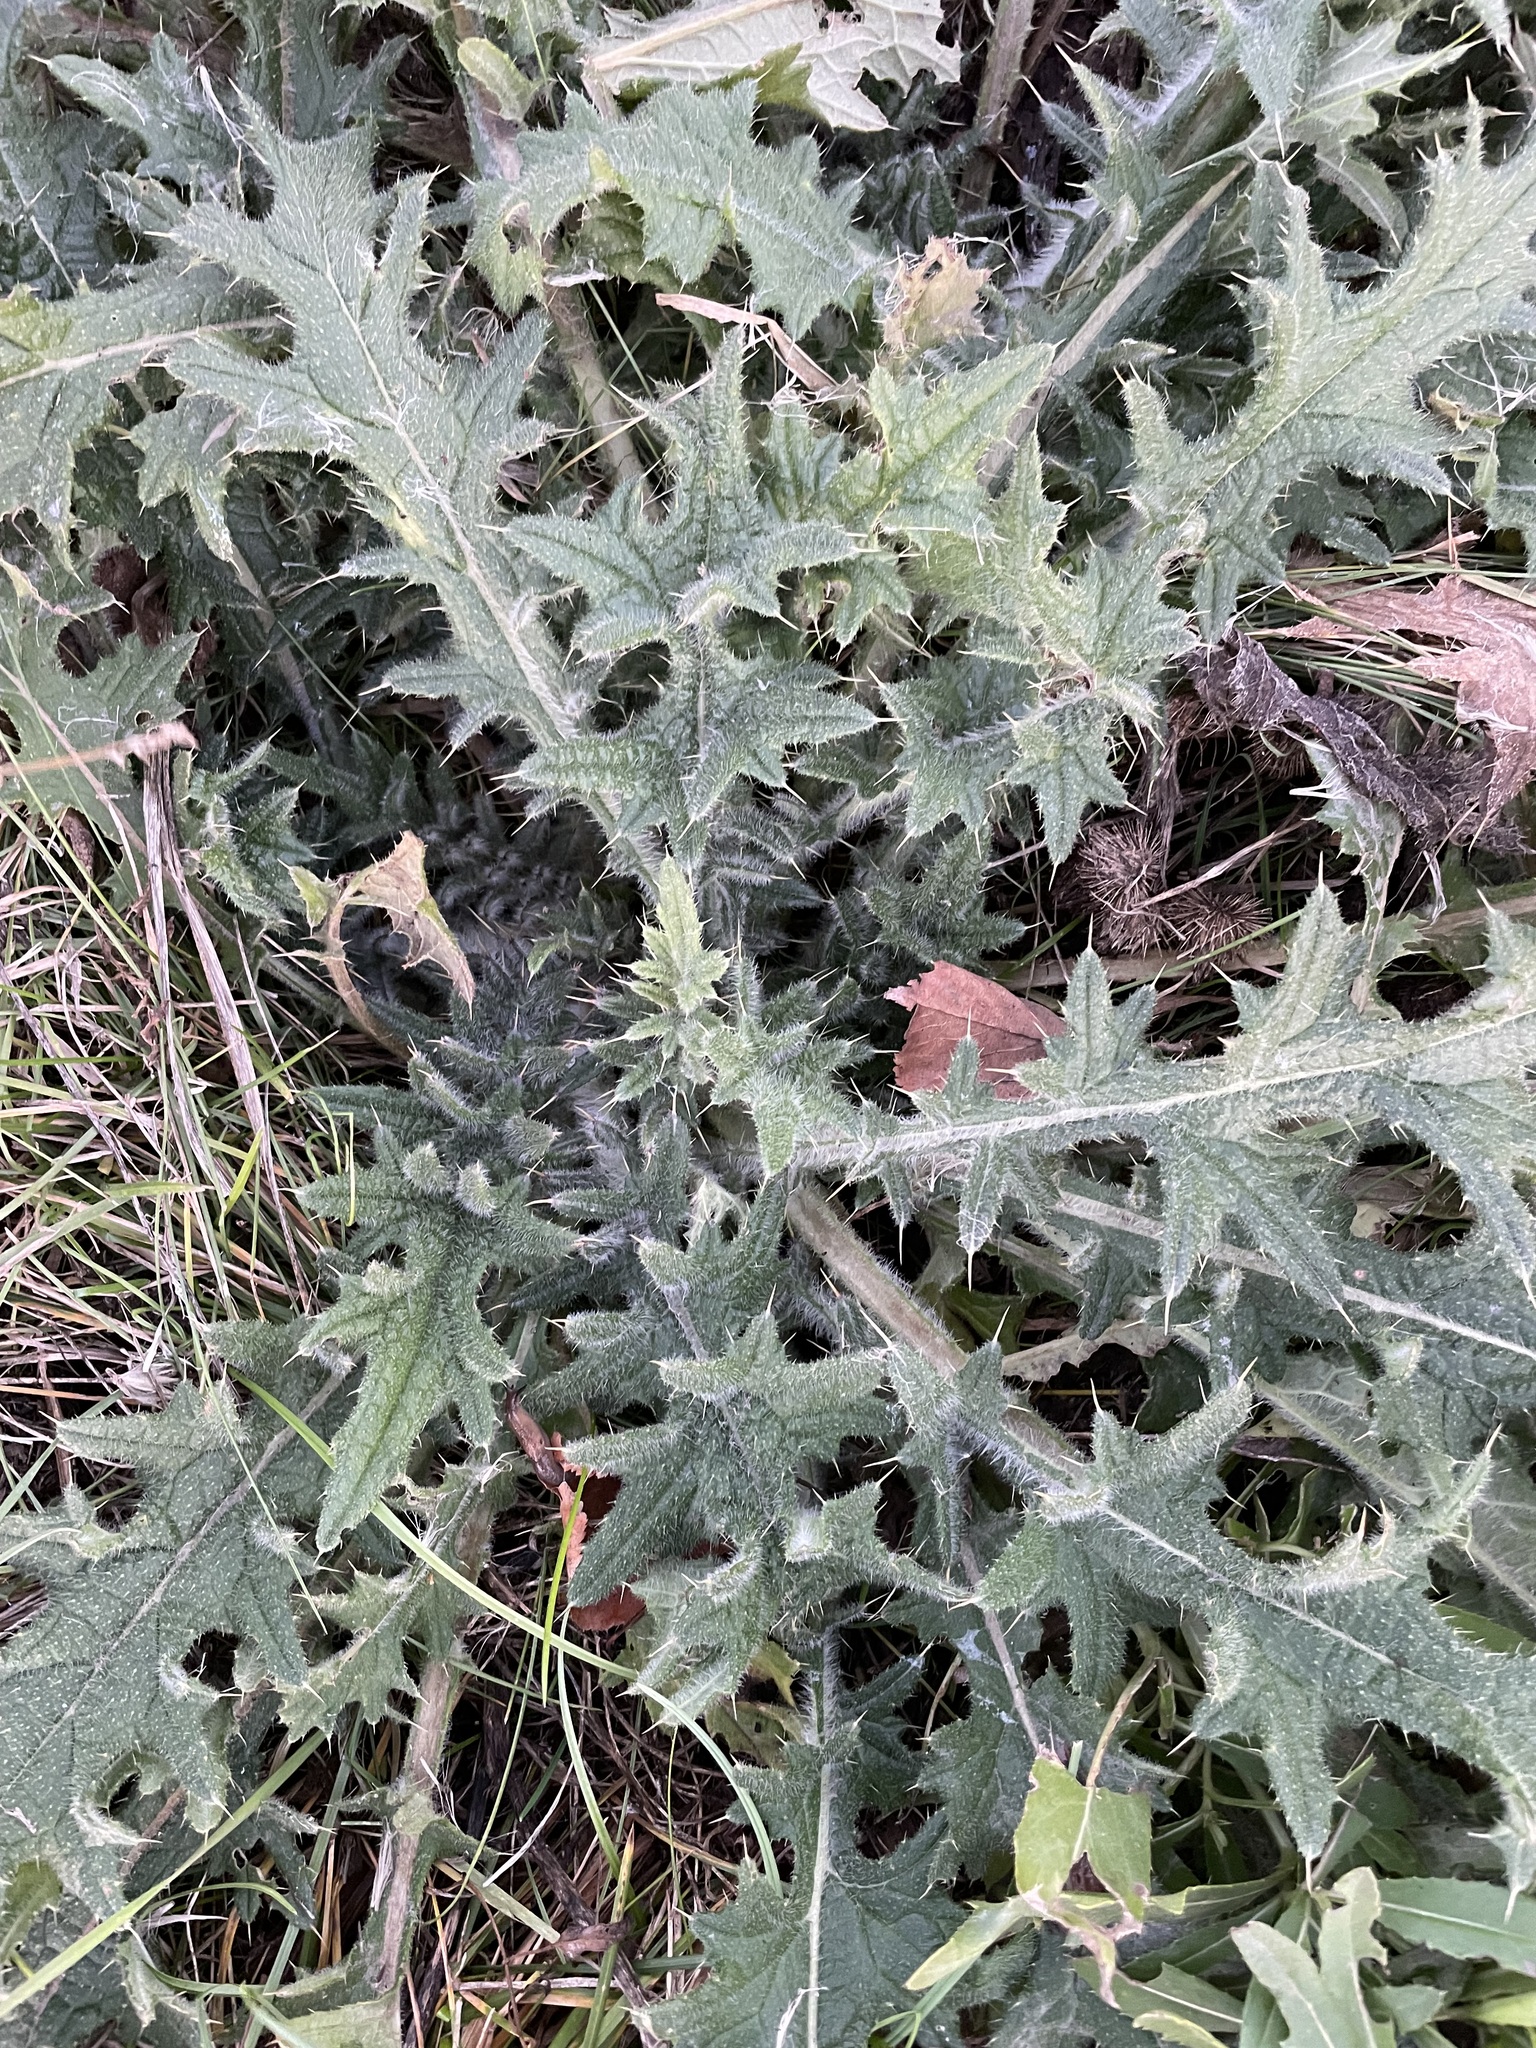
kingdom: Plantae
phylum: Tracheophyta
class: Magnoliopsida
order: Asterales
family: Asteraceae
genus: Cirsium
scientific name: Cirsium vulgare
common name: Bull thistle
